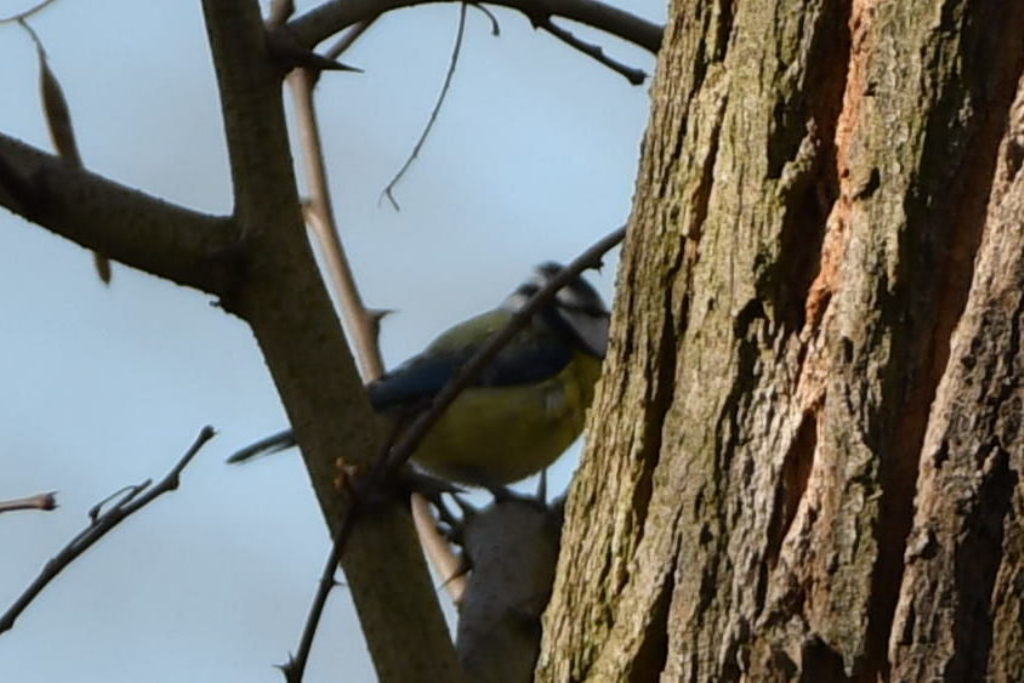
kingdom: Animalia
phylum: Chordata
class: Aves
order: Passeriformes
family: Paridae
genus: Cyanistes
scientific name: Cyanistes caeruleus
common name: Eurasian blue tit
